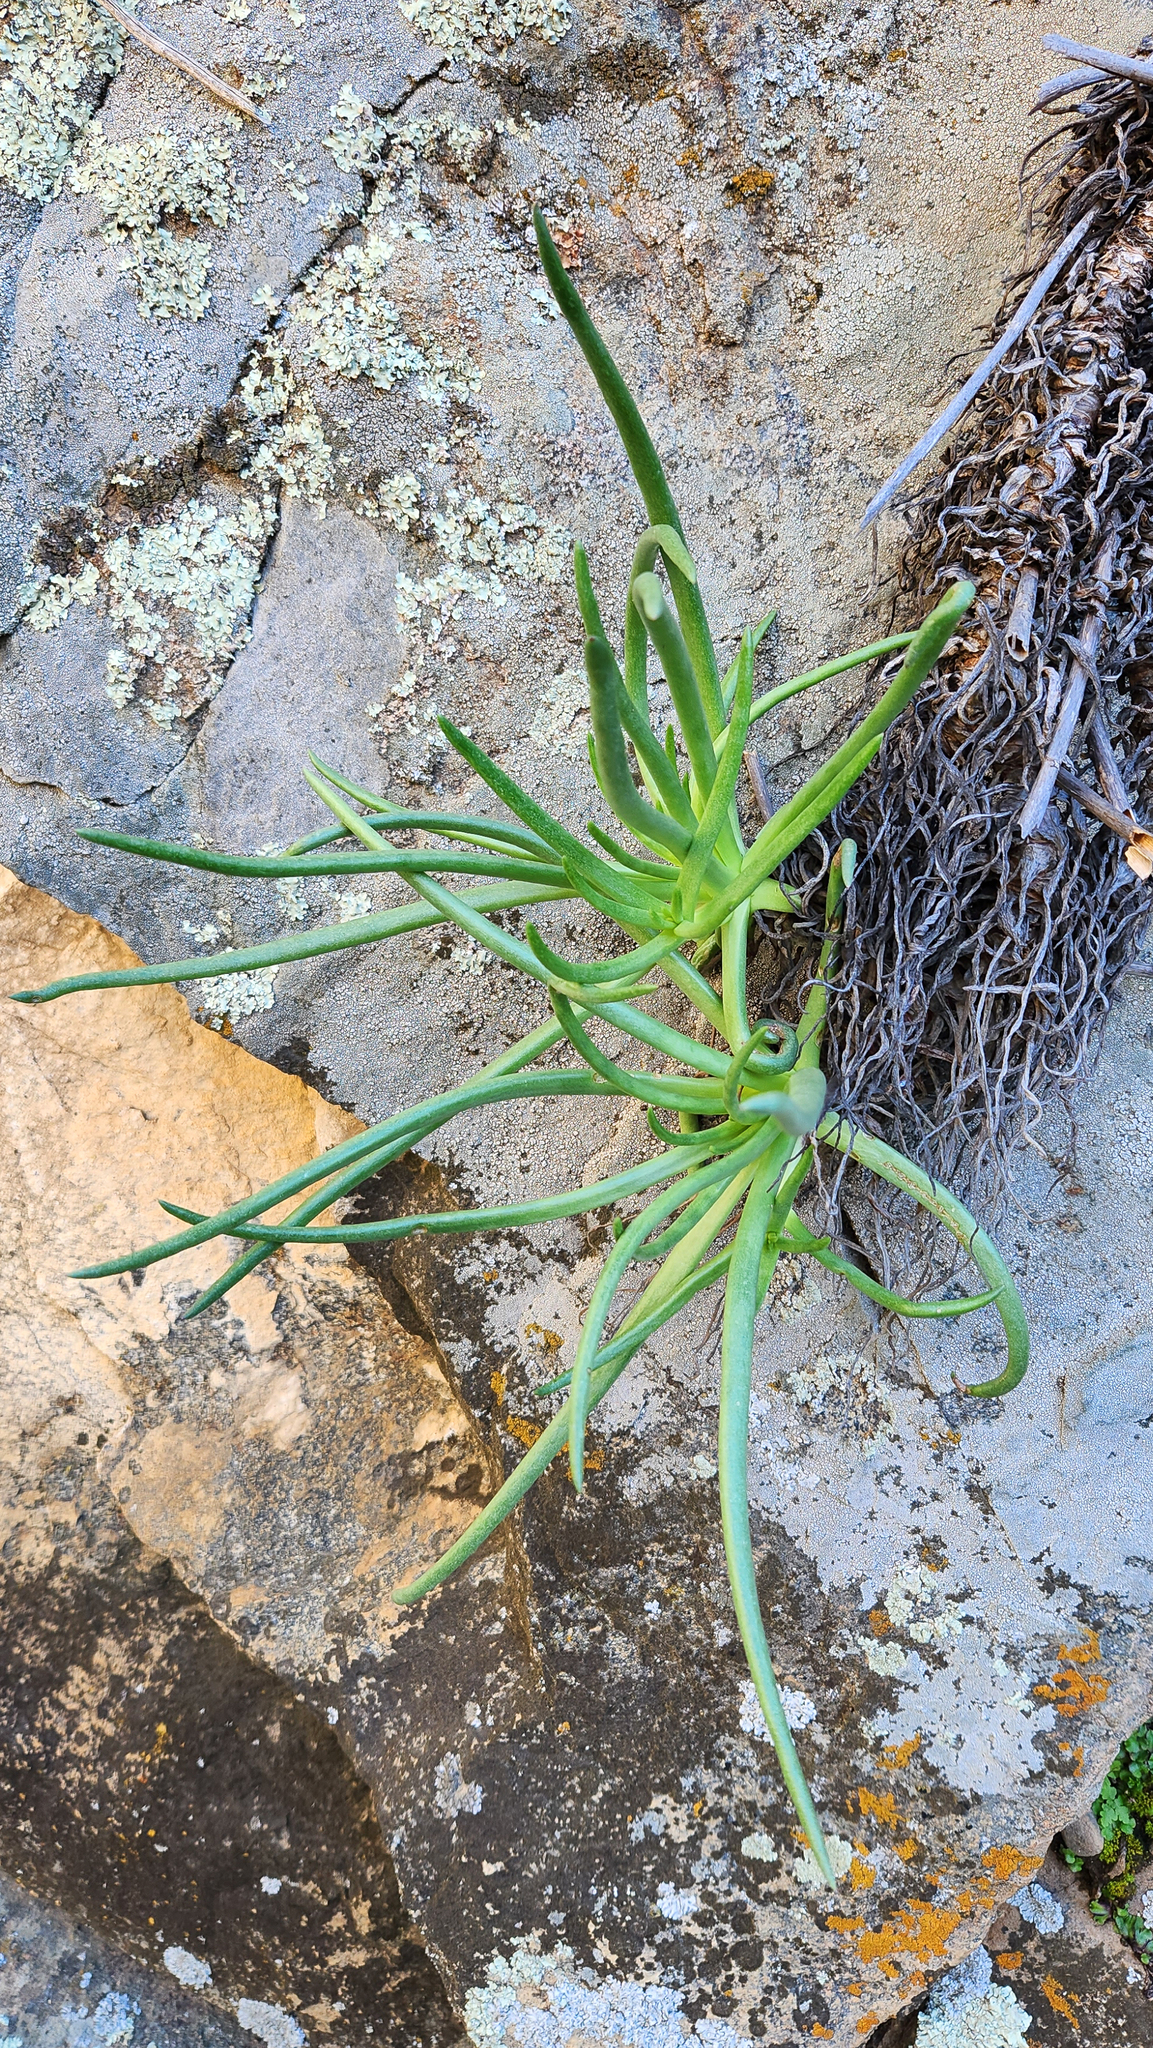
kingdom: Plantae
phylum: Tracheophyta
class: Magnoliopsida
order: Saxifragales
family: Crassulaceae
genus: Dudleya
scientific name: Dudleya edulis
